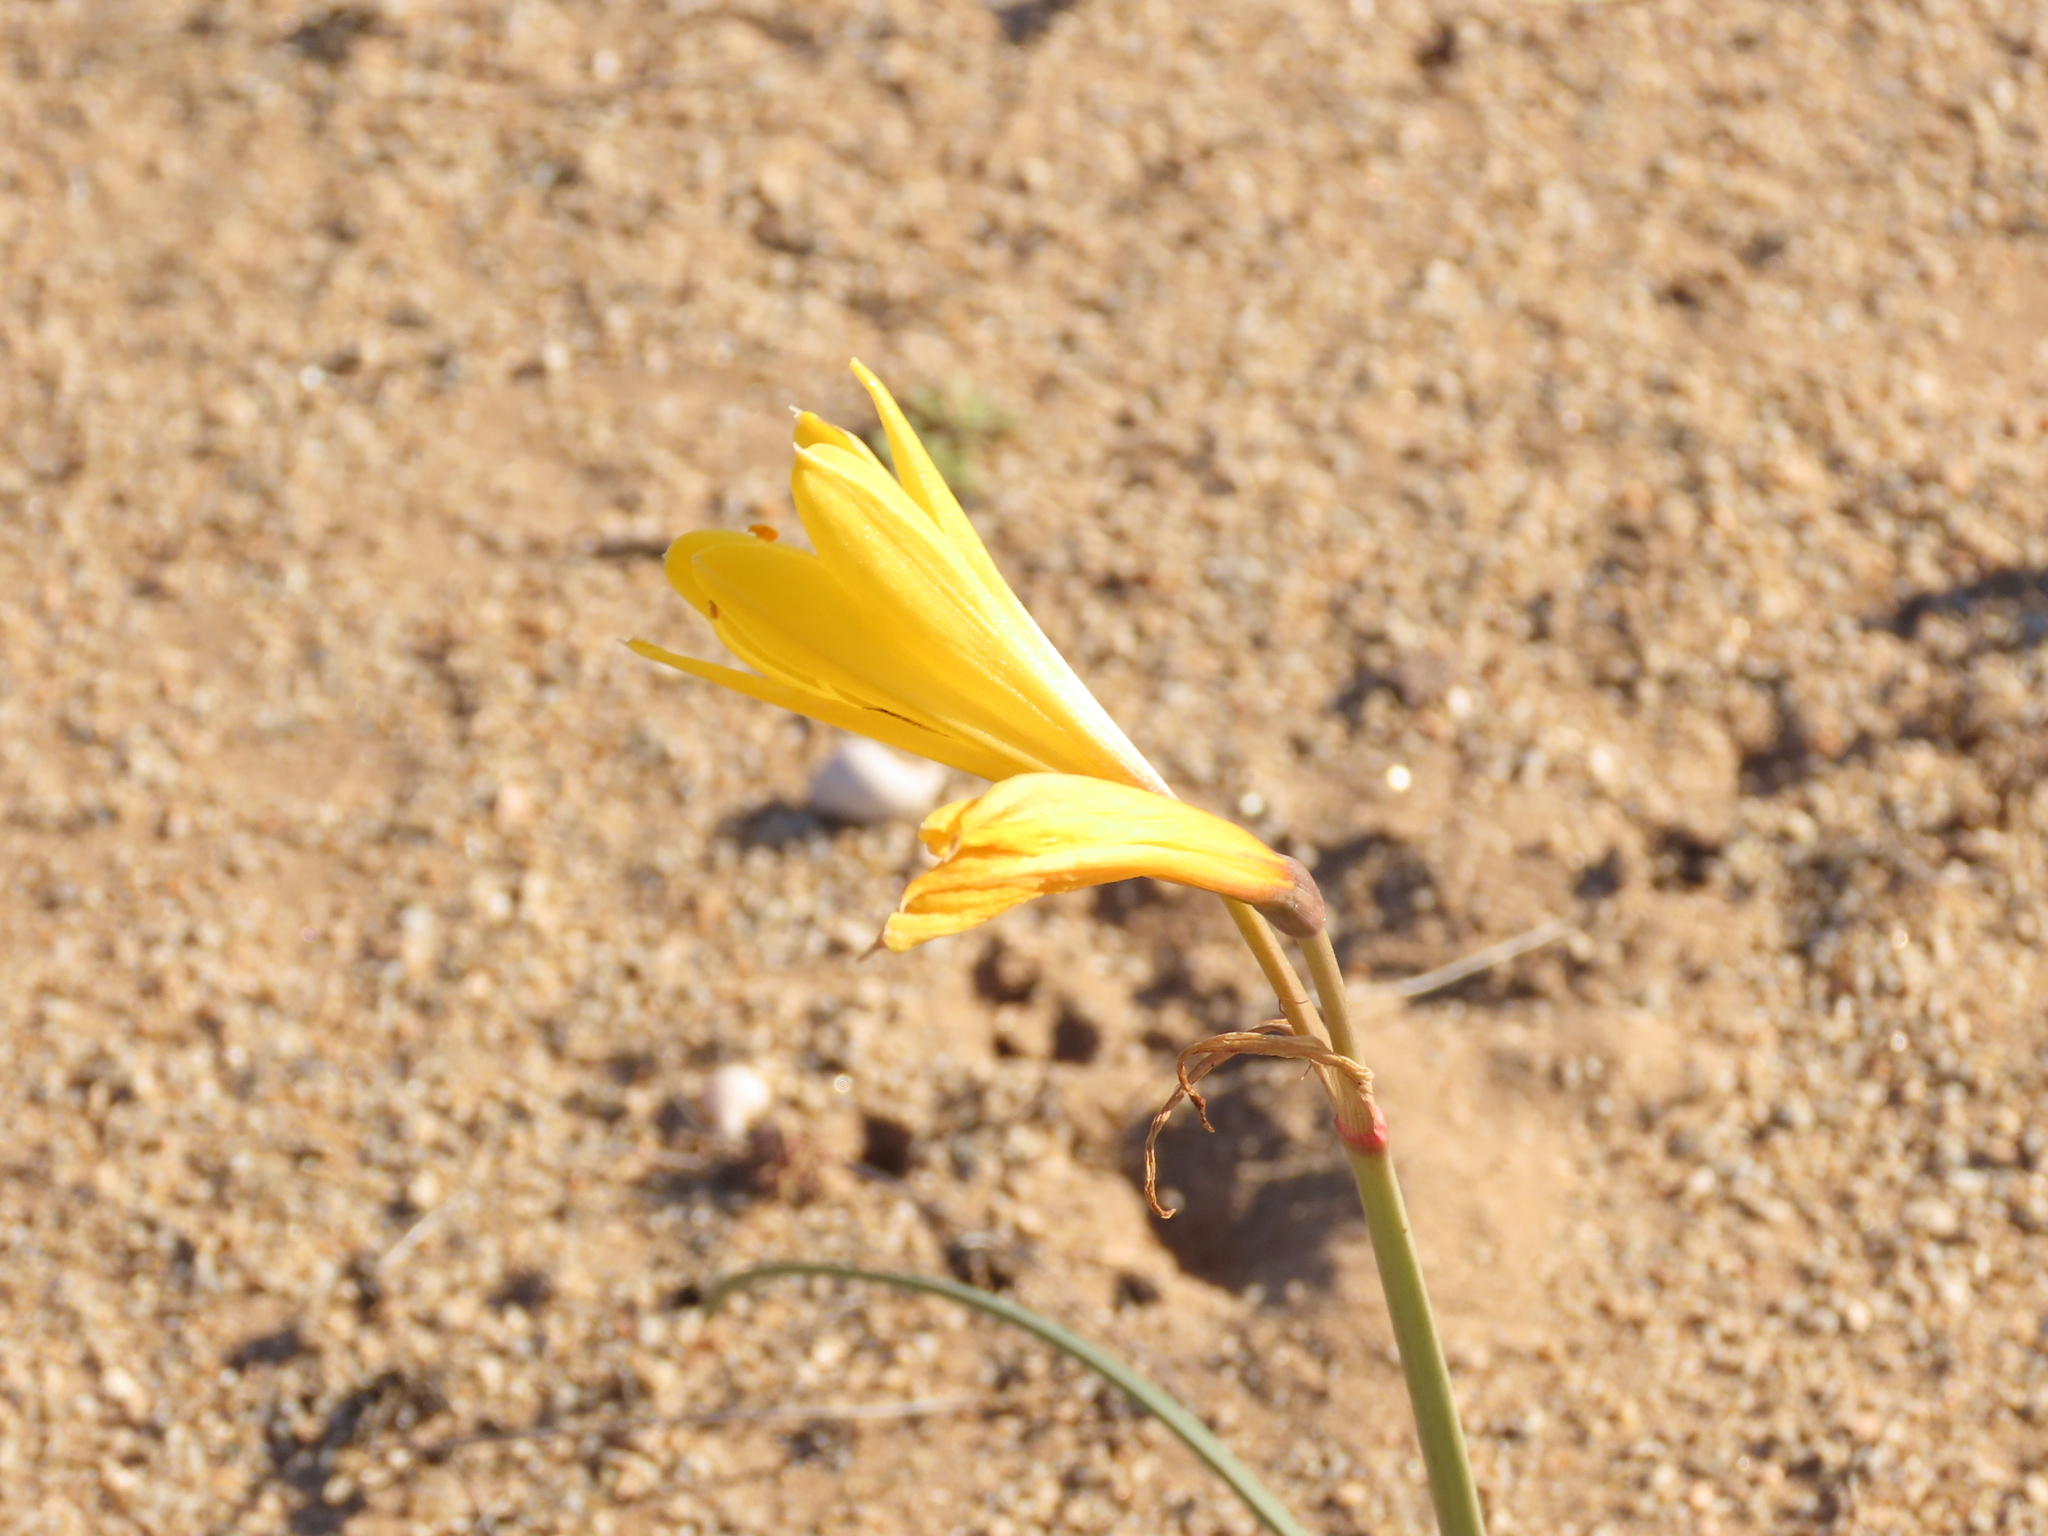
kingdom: Plantae
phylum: Tracheophyta
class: Liliopsida
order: Asparagales
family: Amaryllidaceae
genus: Zephyranthes
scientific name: Zephyranthes bagnoldii
